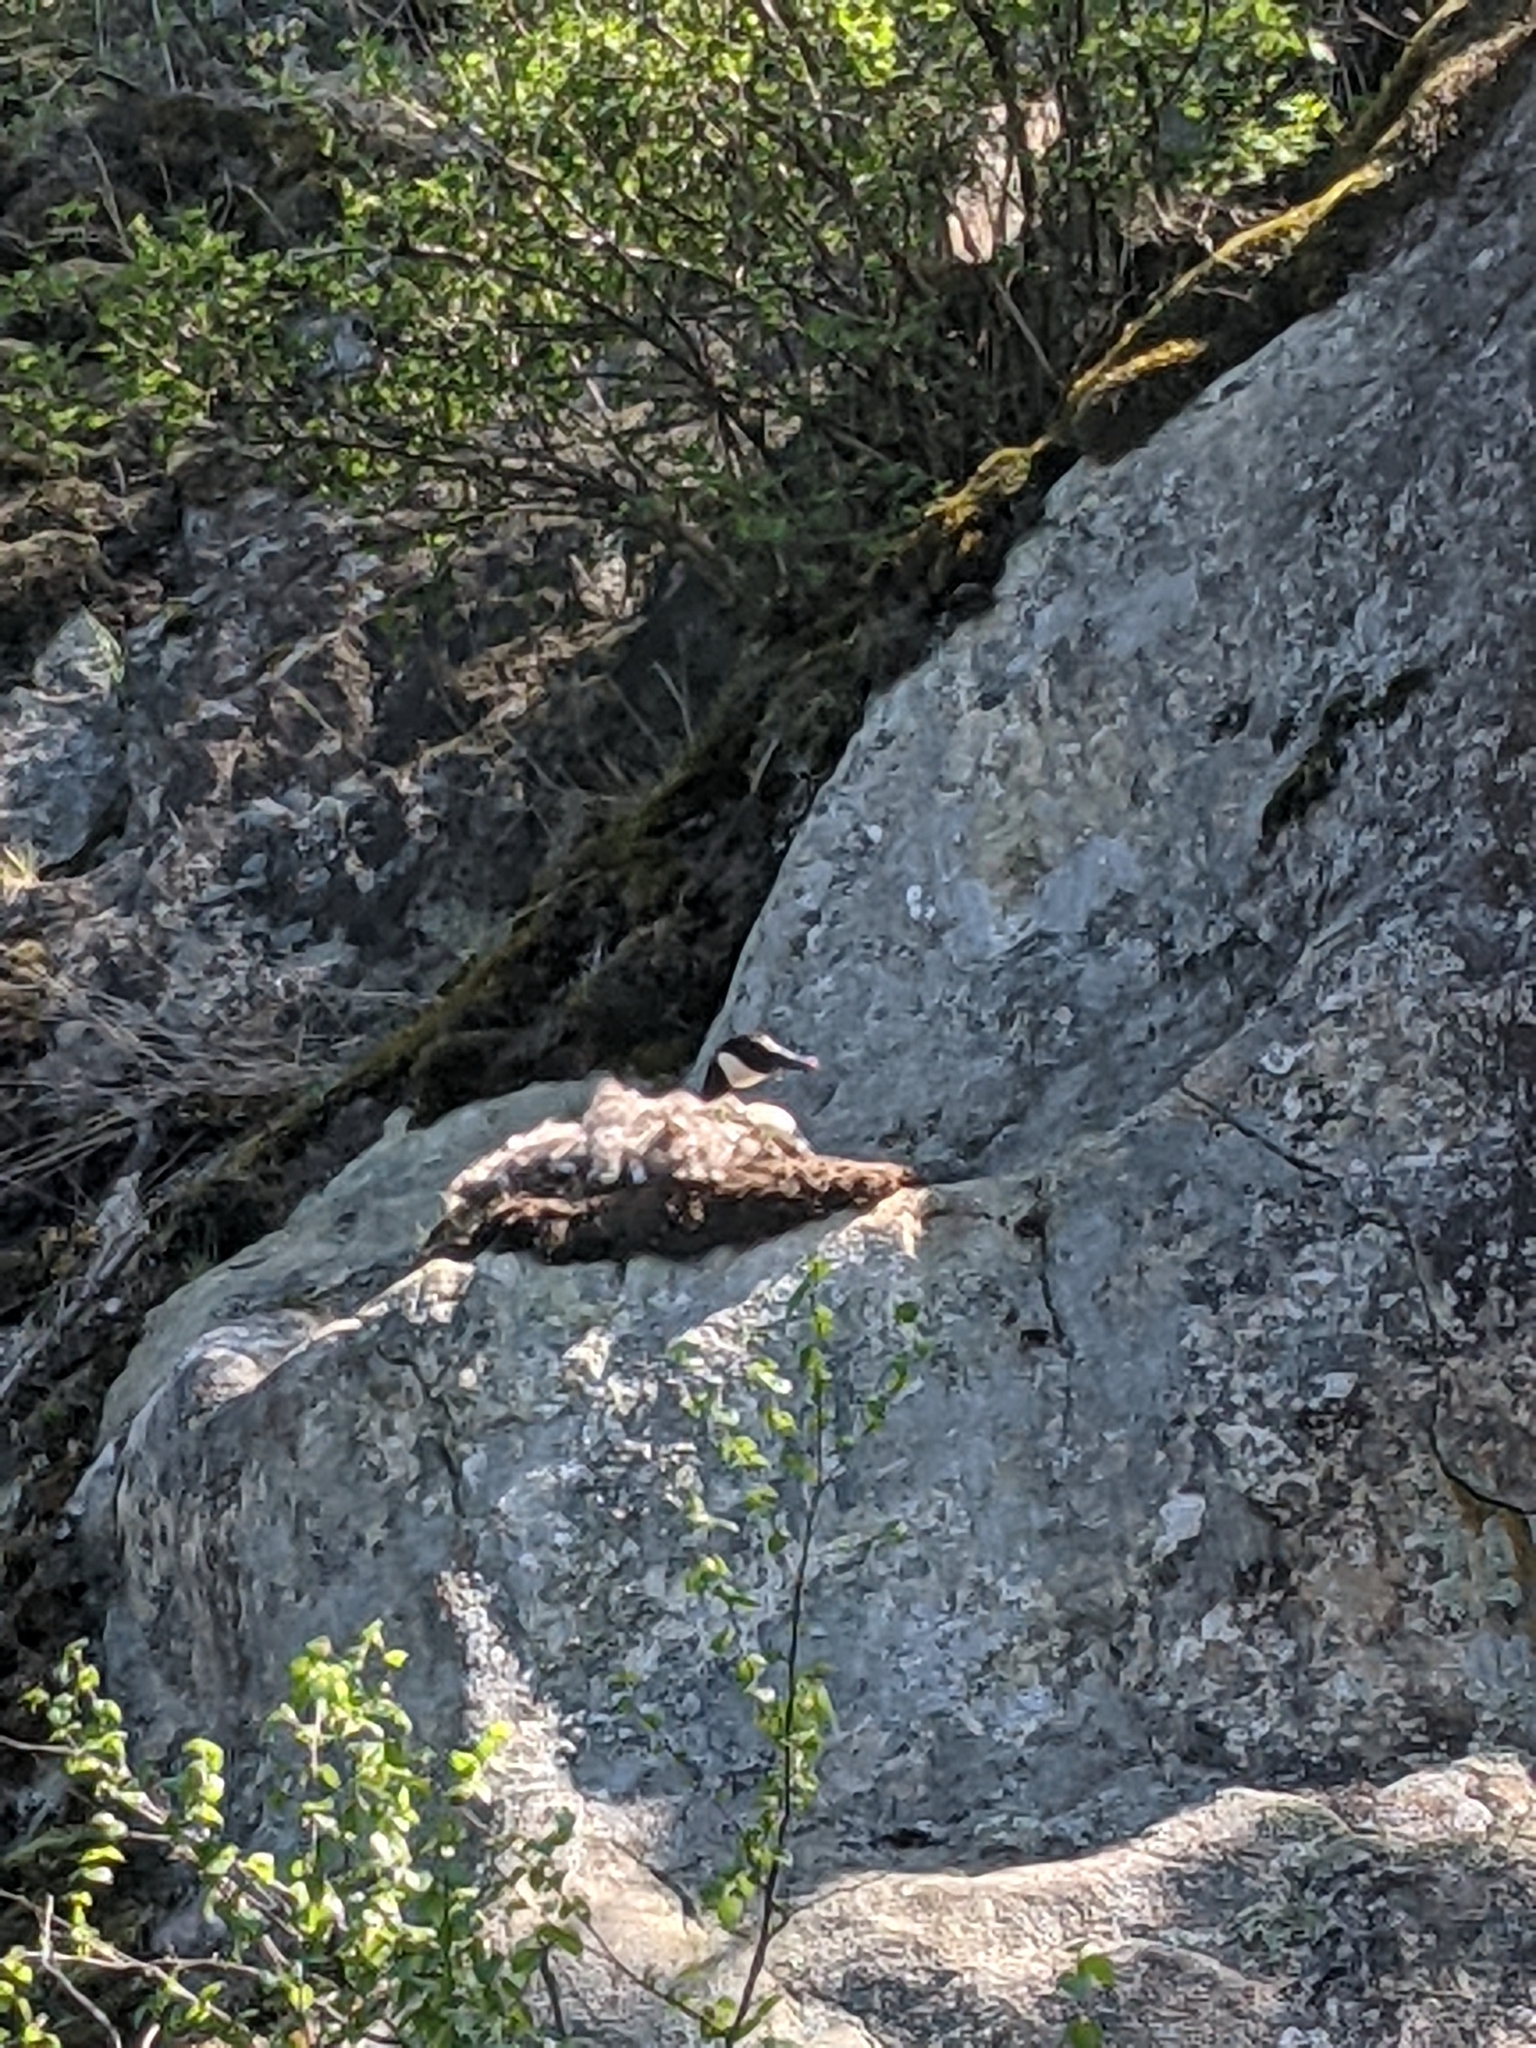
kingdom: Animalia
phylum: Chordata
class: Aves
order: Anseriformes
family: Anatidae
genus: Branta
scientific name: Branta canadensis
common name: Canada goose
